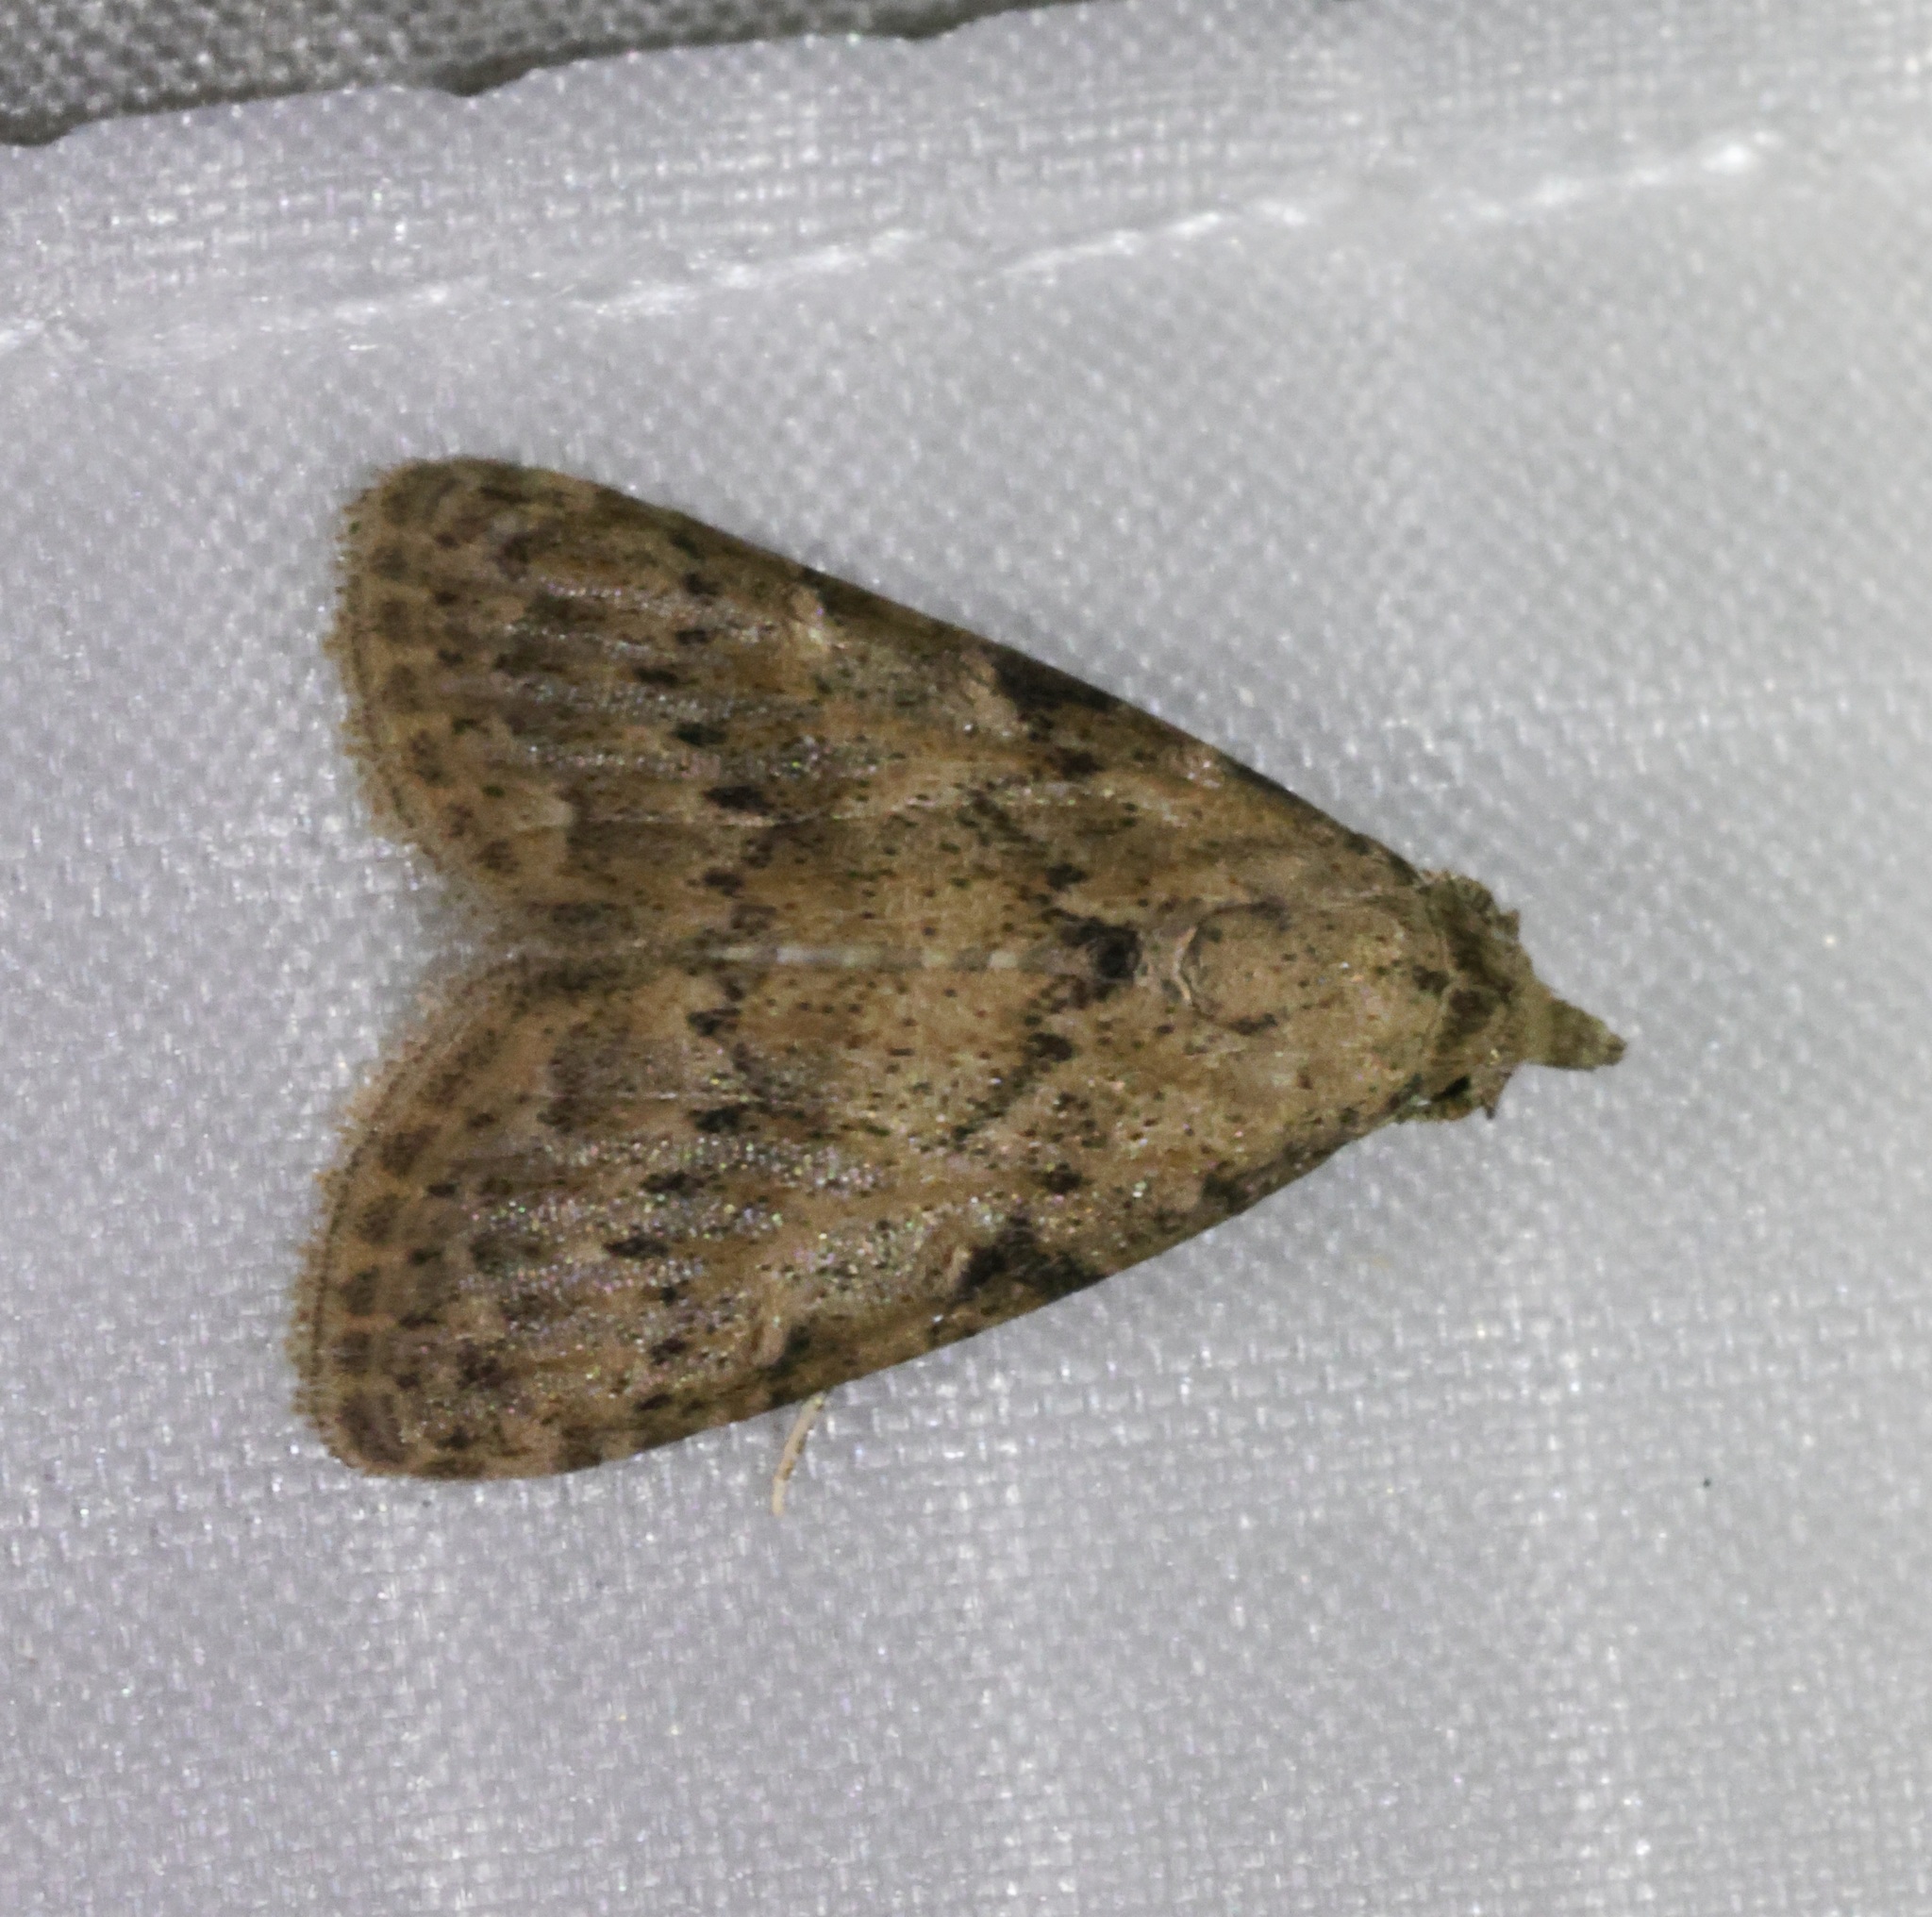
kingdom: Animalia
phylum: Arthropoda
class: Insecta
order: Lepidoptera
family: Nolidae
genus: Nola
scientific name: Nola ceylonica
